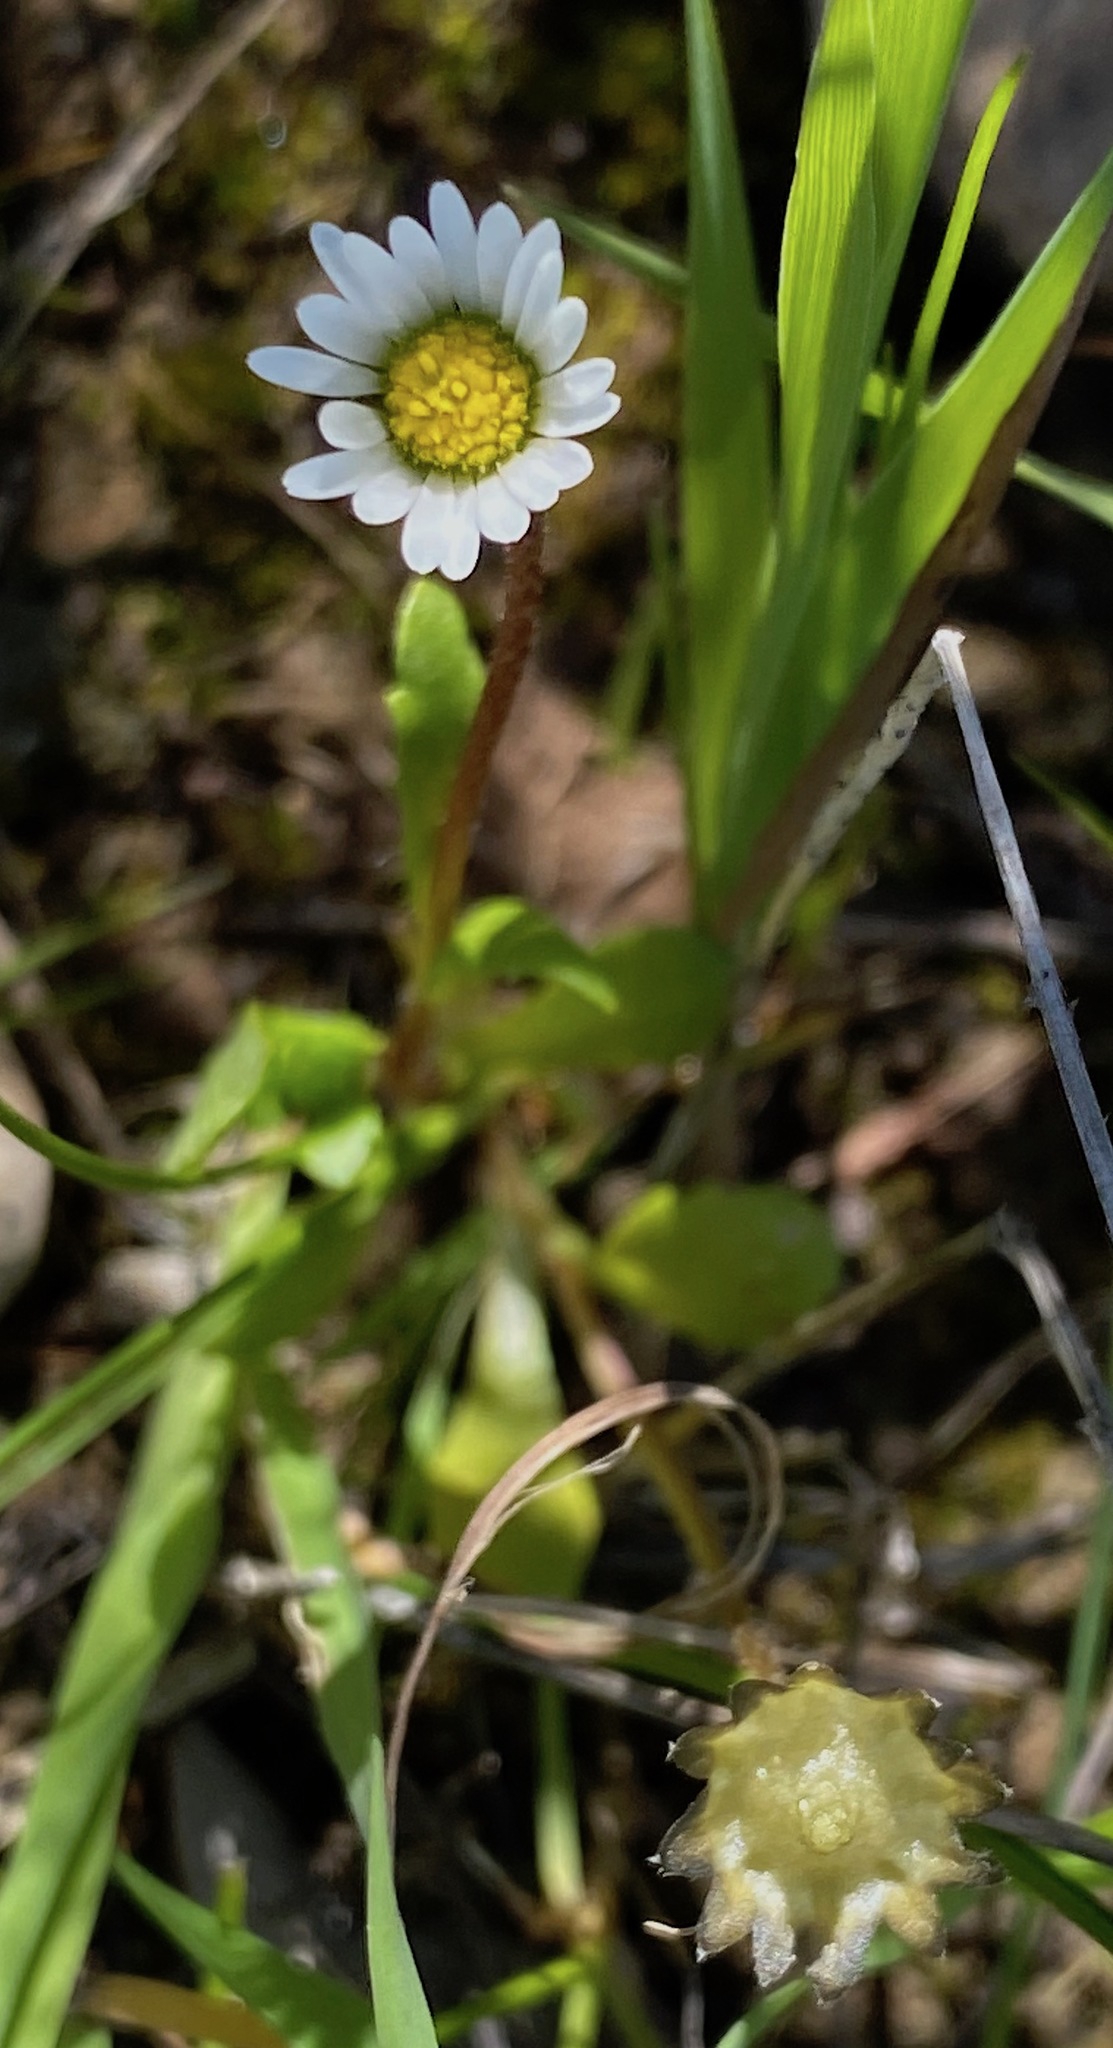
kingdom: Plantae
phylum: Tracheophyta
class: Magnoliopsida
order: Asterales
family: Asteraceae
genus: Bellis
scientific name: Bellis annua
